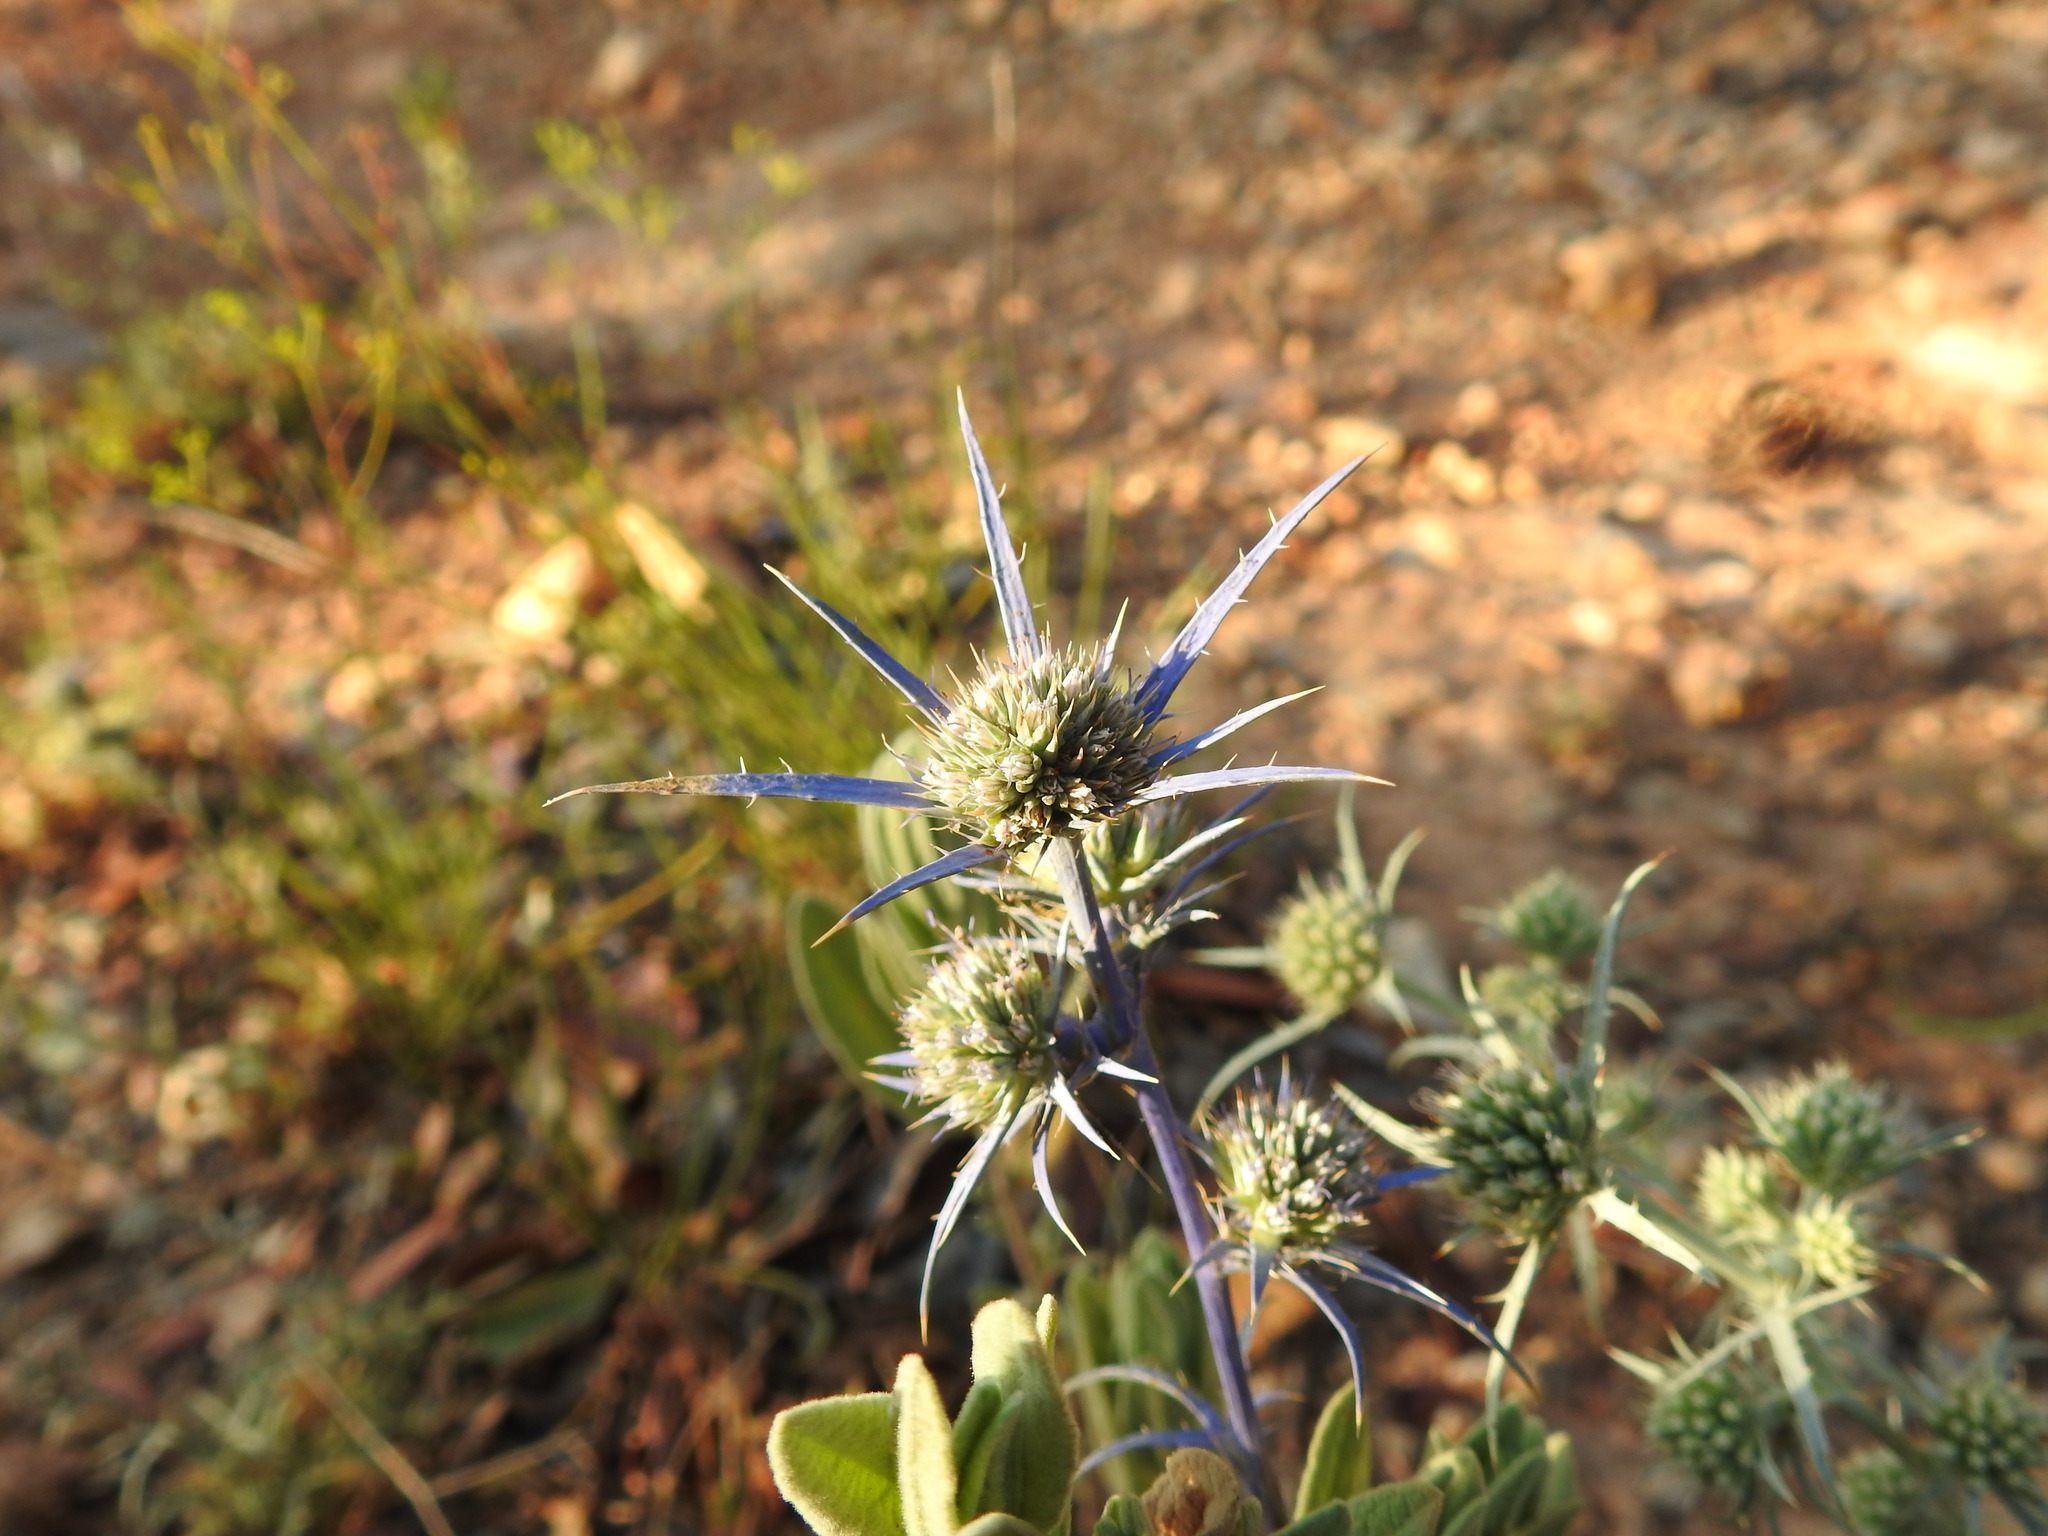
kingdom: Plantae
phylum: Tracheophyta
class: Magnoliopsida
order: Apiales
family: Apiaceae
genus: Eryngium
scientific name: Eryngium dilatatum
